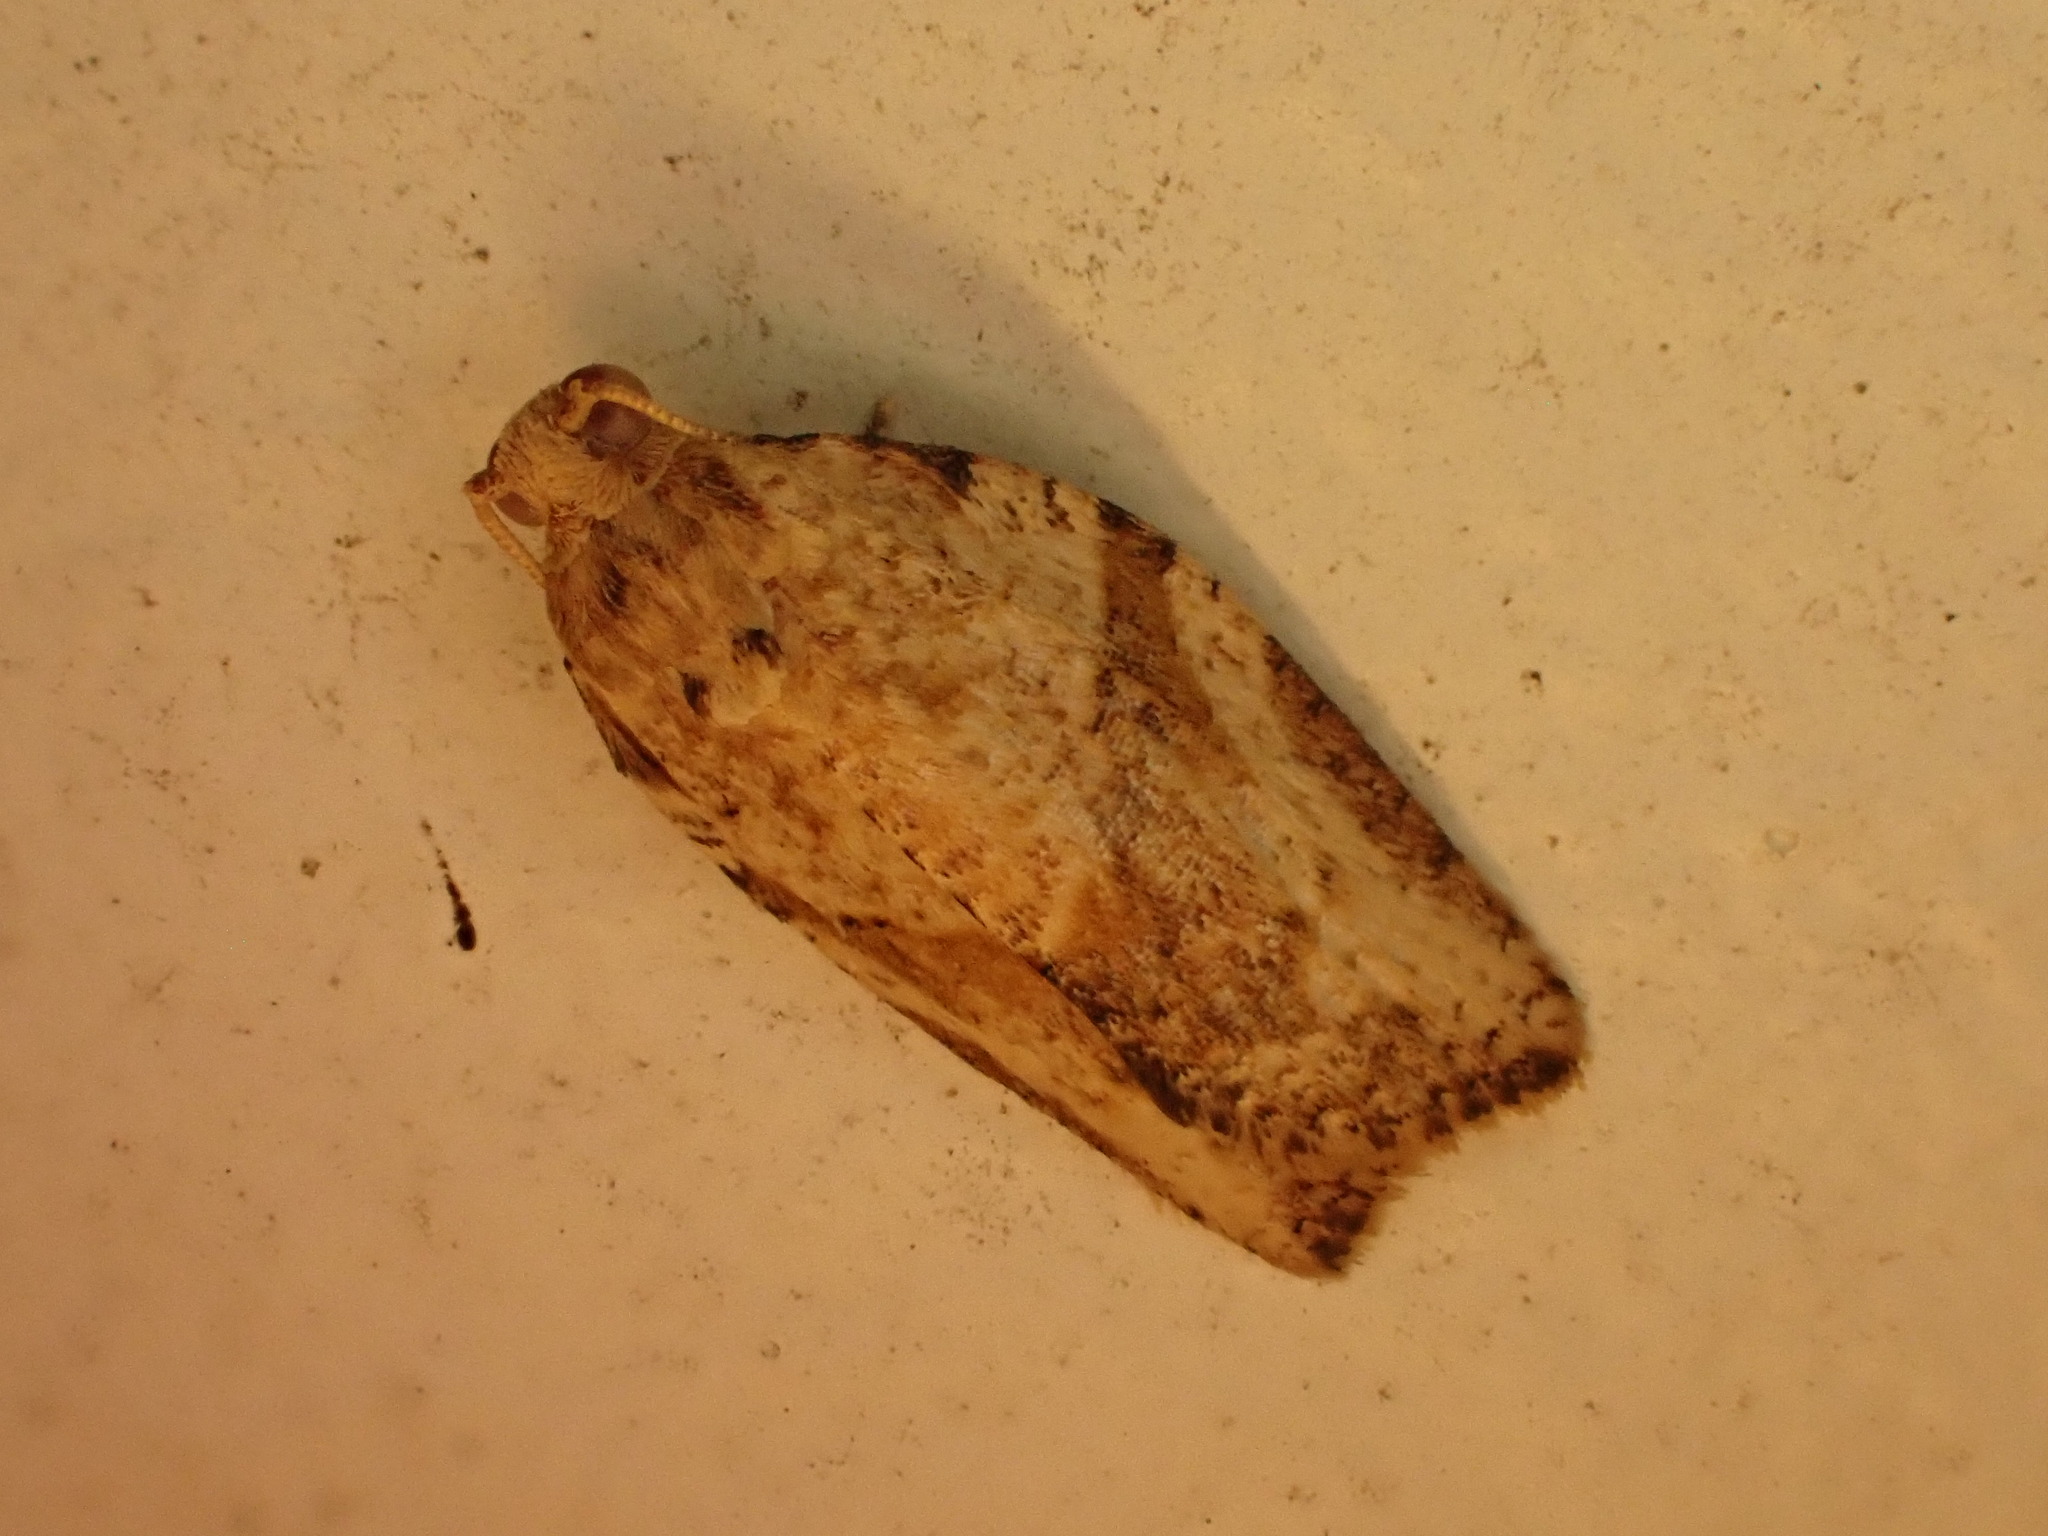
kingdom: Animalia
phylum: Arthropoda
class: Insecta
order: Lepidoptera
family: Tortricidae
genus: Epiphyas
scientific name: Epiphyas postvittana
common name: Light brown apple moth
